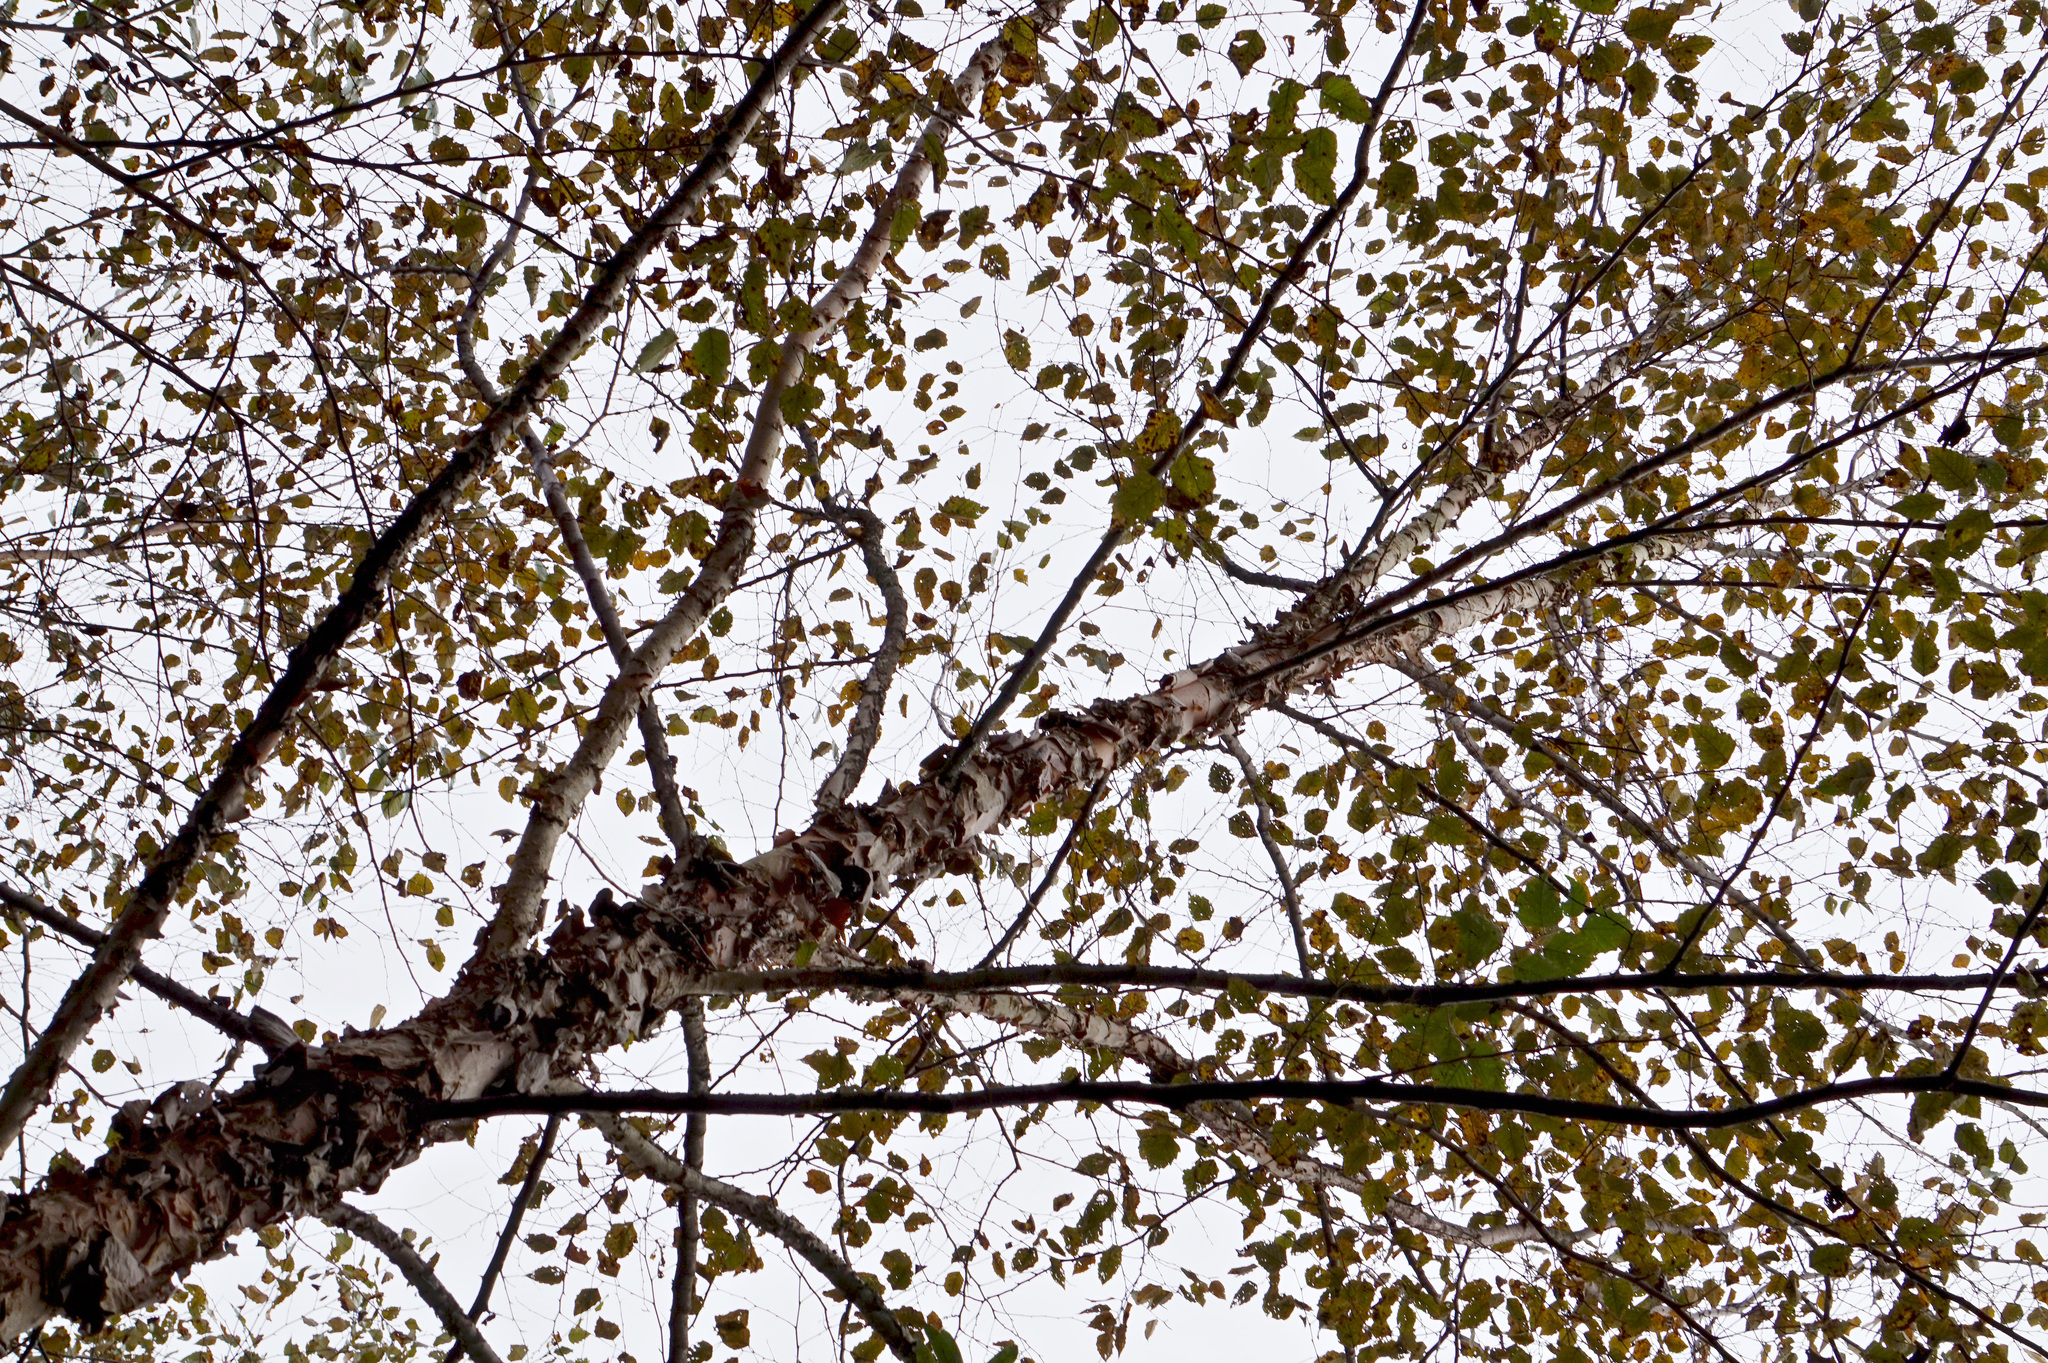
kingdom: Plantae
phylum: Tracheophyta
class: Magnoliopsida
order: Fagales
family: Betulaceae
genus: Betula
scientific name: Betula nigra
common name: Black birch
